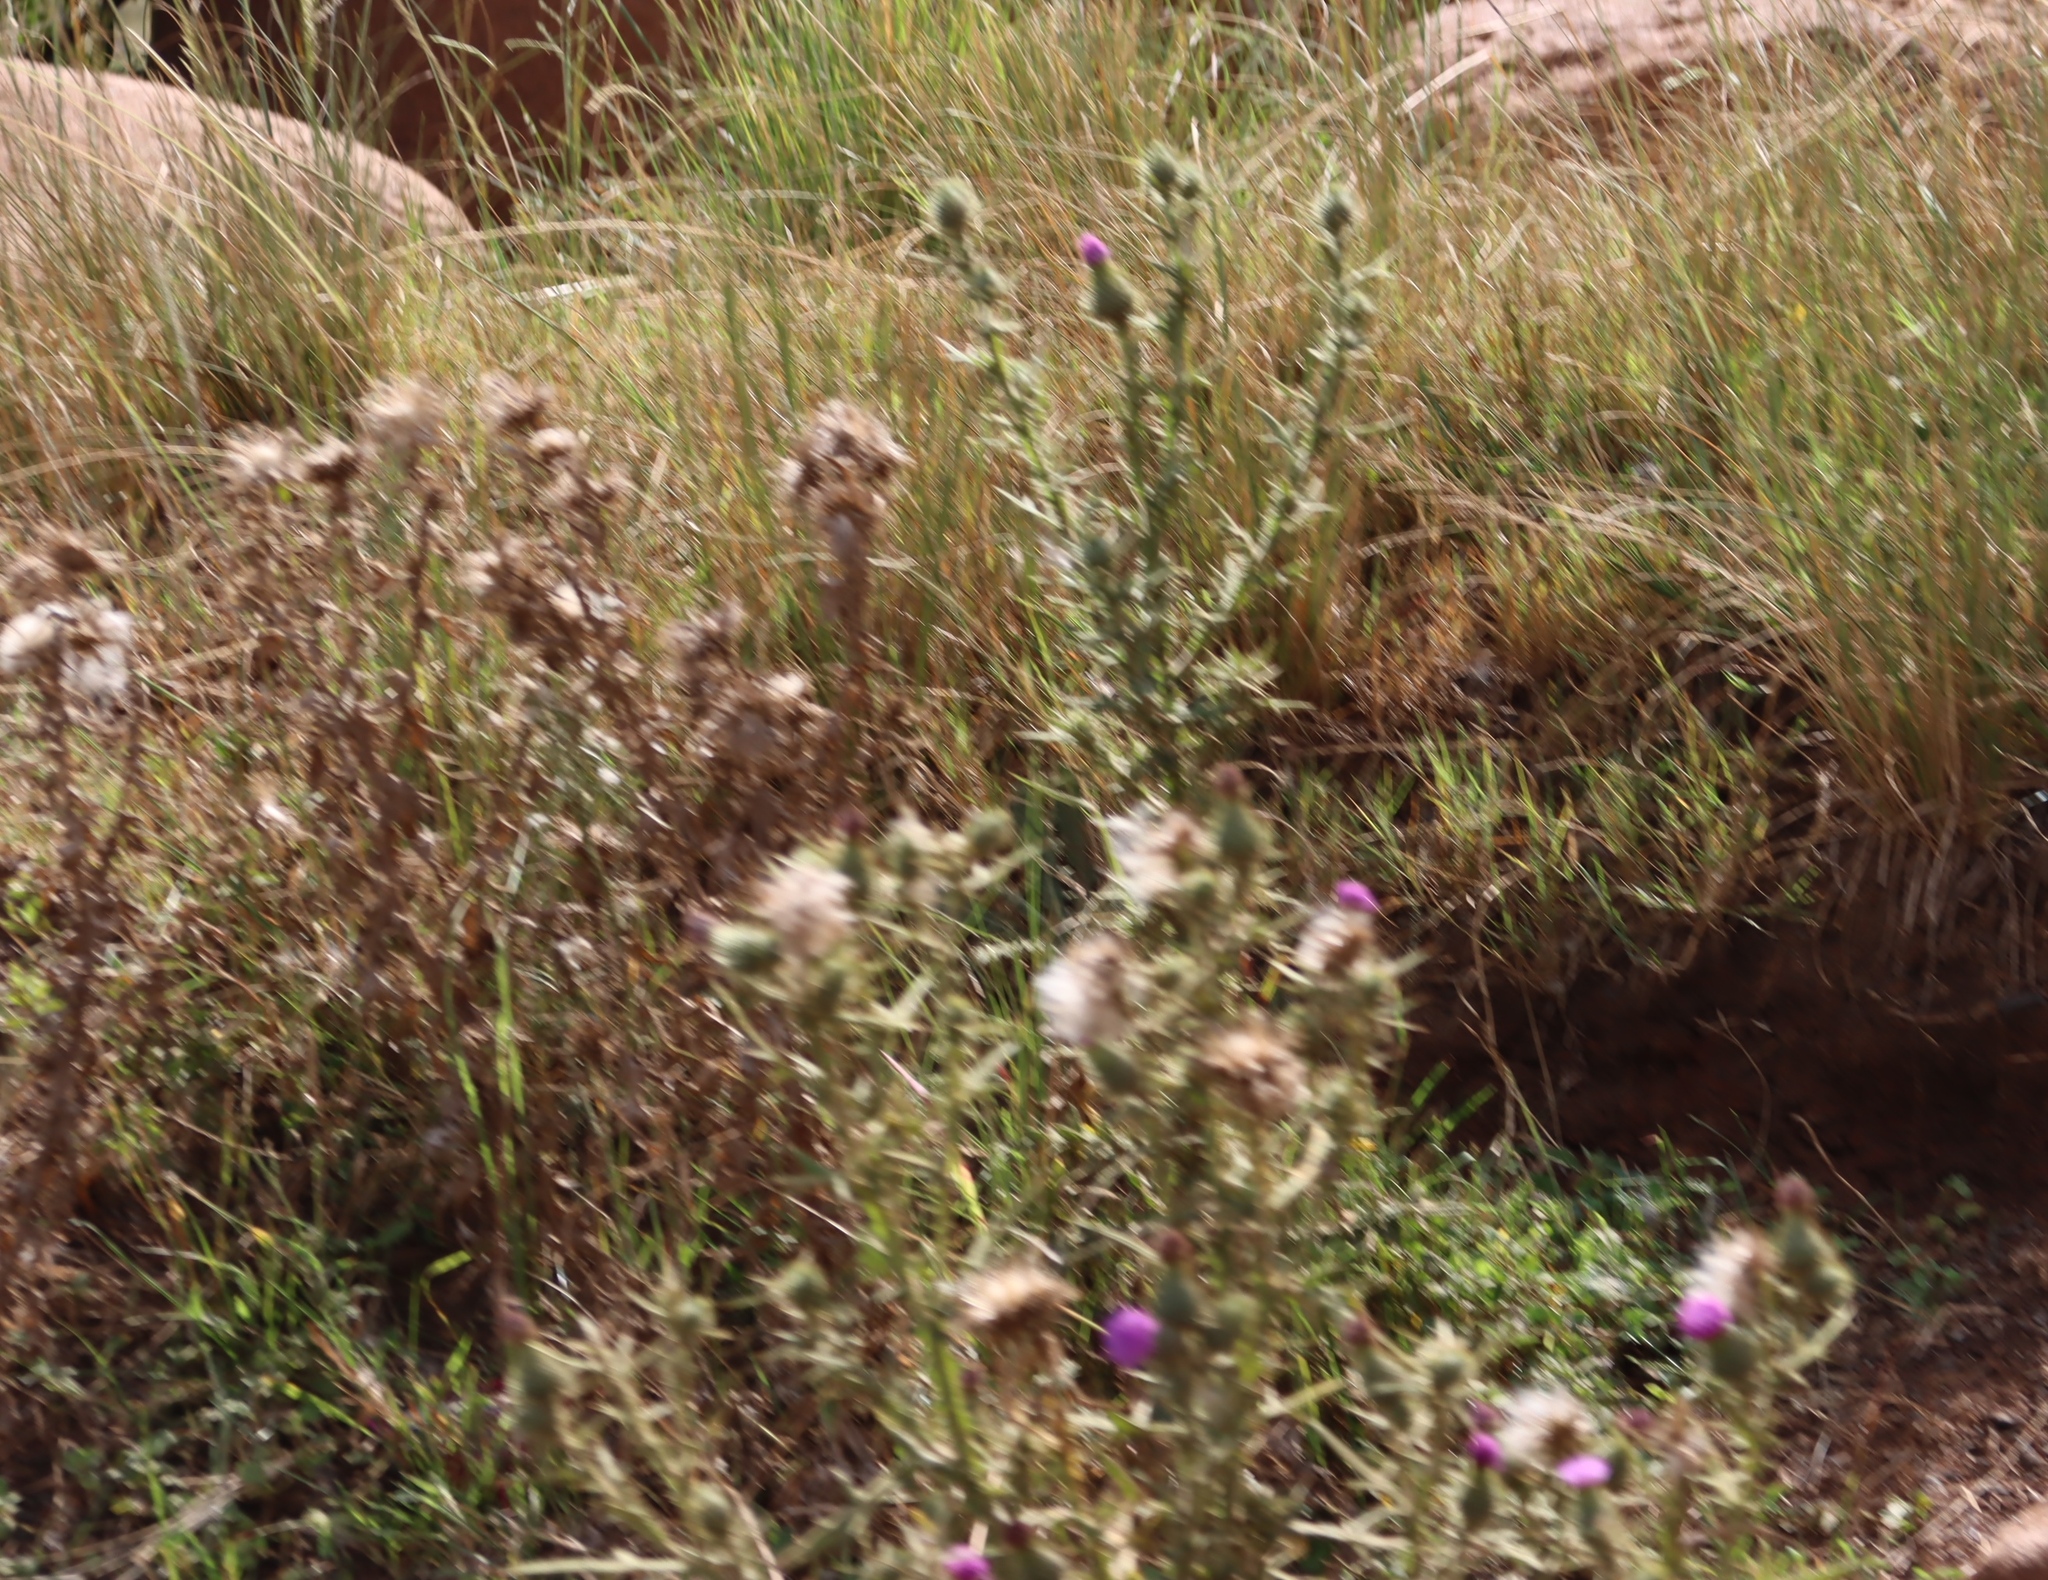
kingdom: Plantae
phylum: Tracheophyta
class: Magnoliopsida
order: Asterales
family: Asteraceae
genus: Cirsium
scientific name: Cirsium vulgare
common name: Bull thistle
